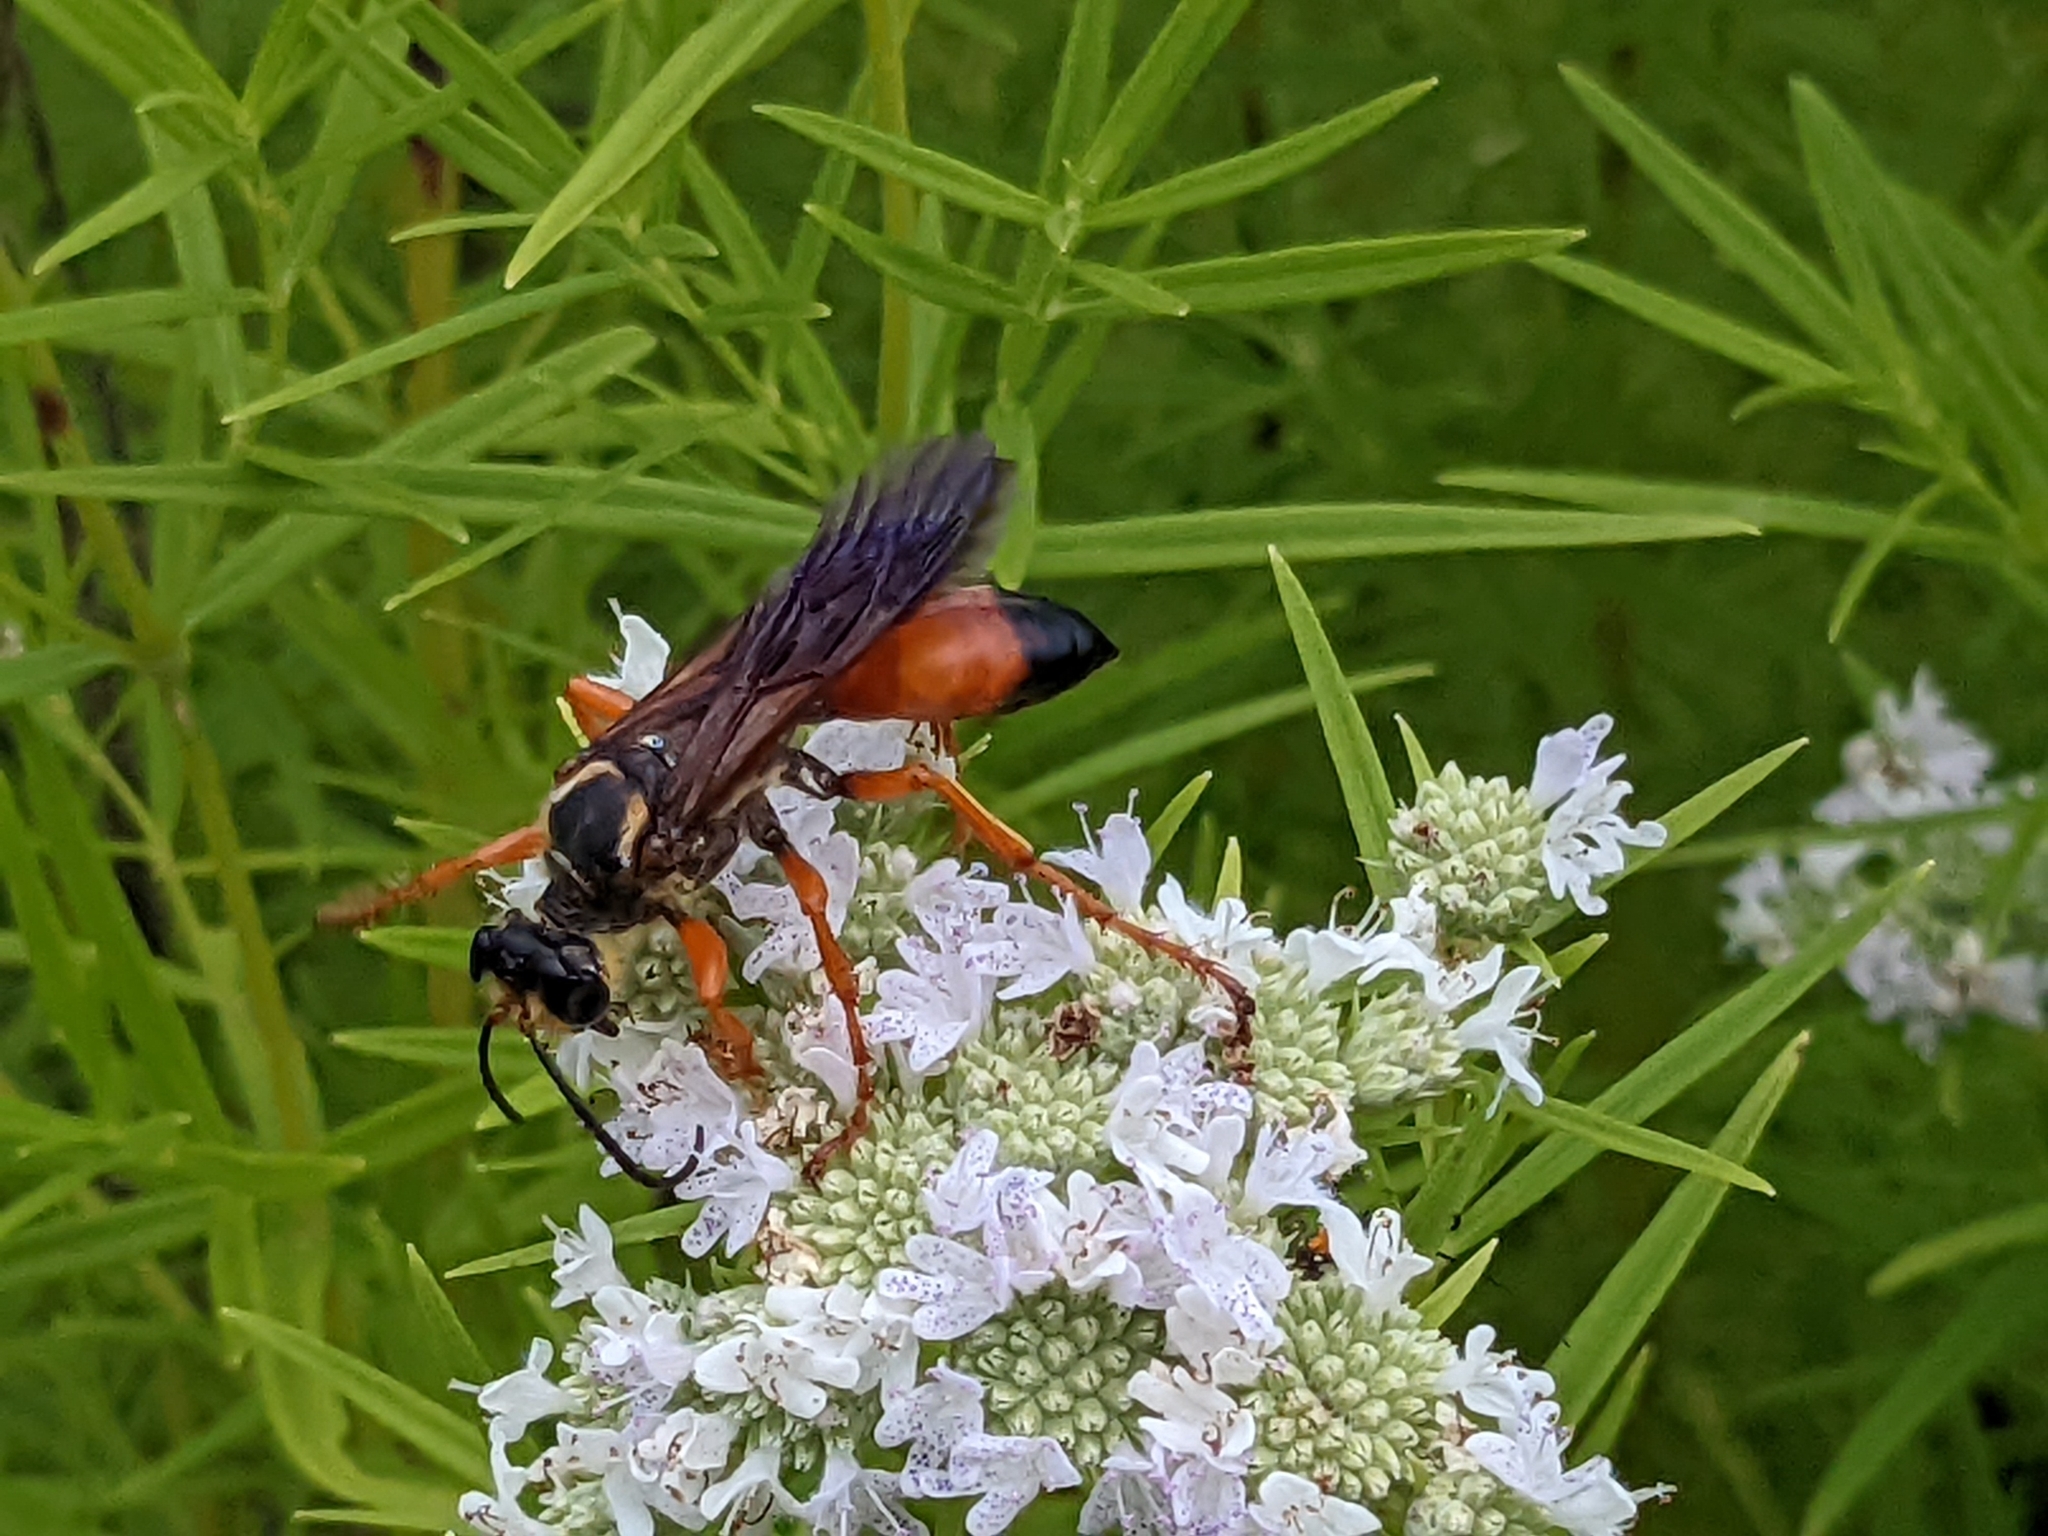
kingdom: Animalia
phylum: Arthropoda
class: Insecta
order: Hymenoptera
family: Sphecidae
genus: Sphex
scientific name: Sphex ichneumoneus
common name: Great golden digger wasp
